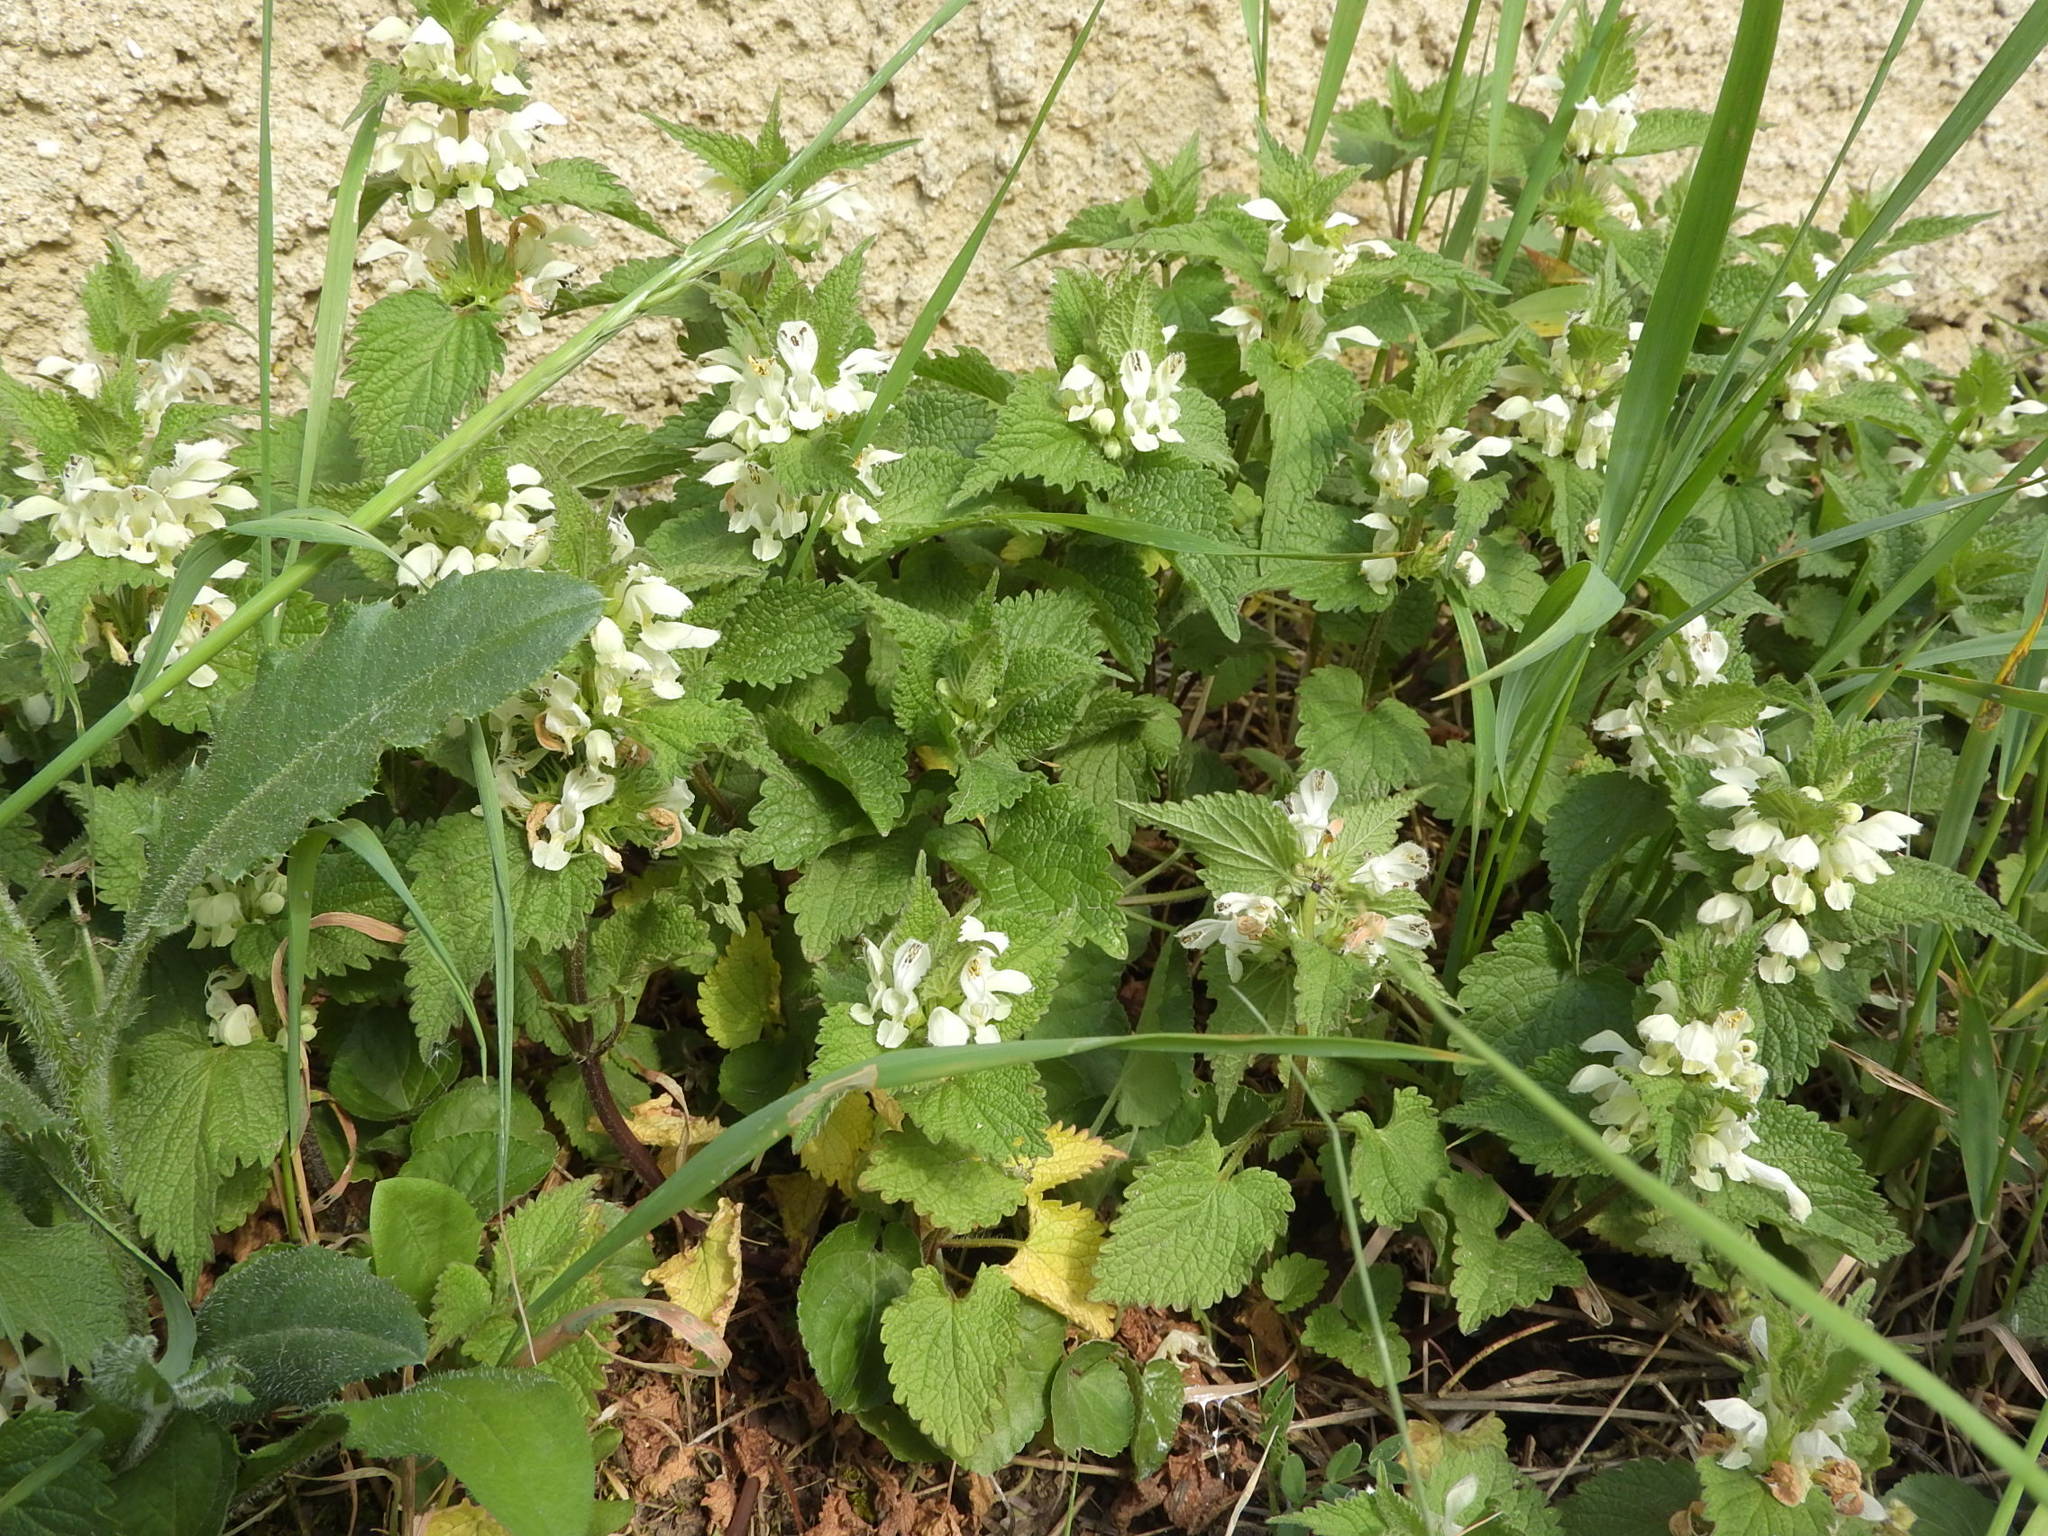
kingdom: Plantae
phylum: Tracheophyta
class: Magnoliopsida
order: Lamiales
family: Lamiaceae
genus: Lamium
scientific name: Lamium album
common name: White dead-nettle
